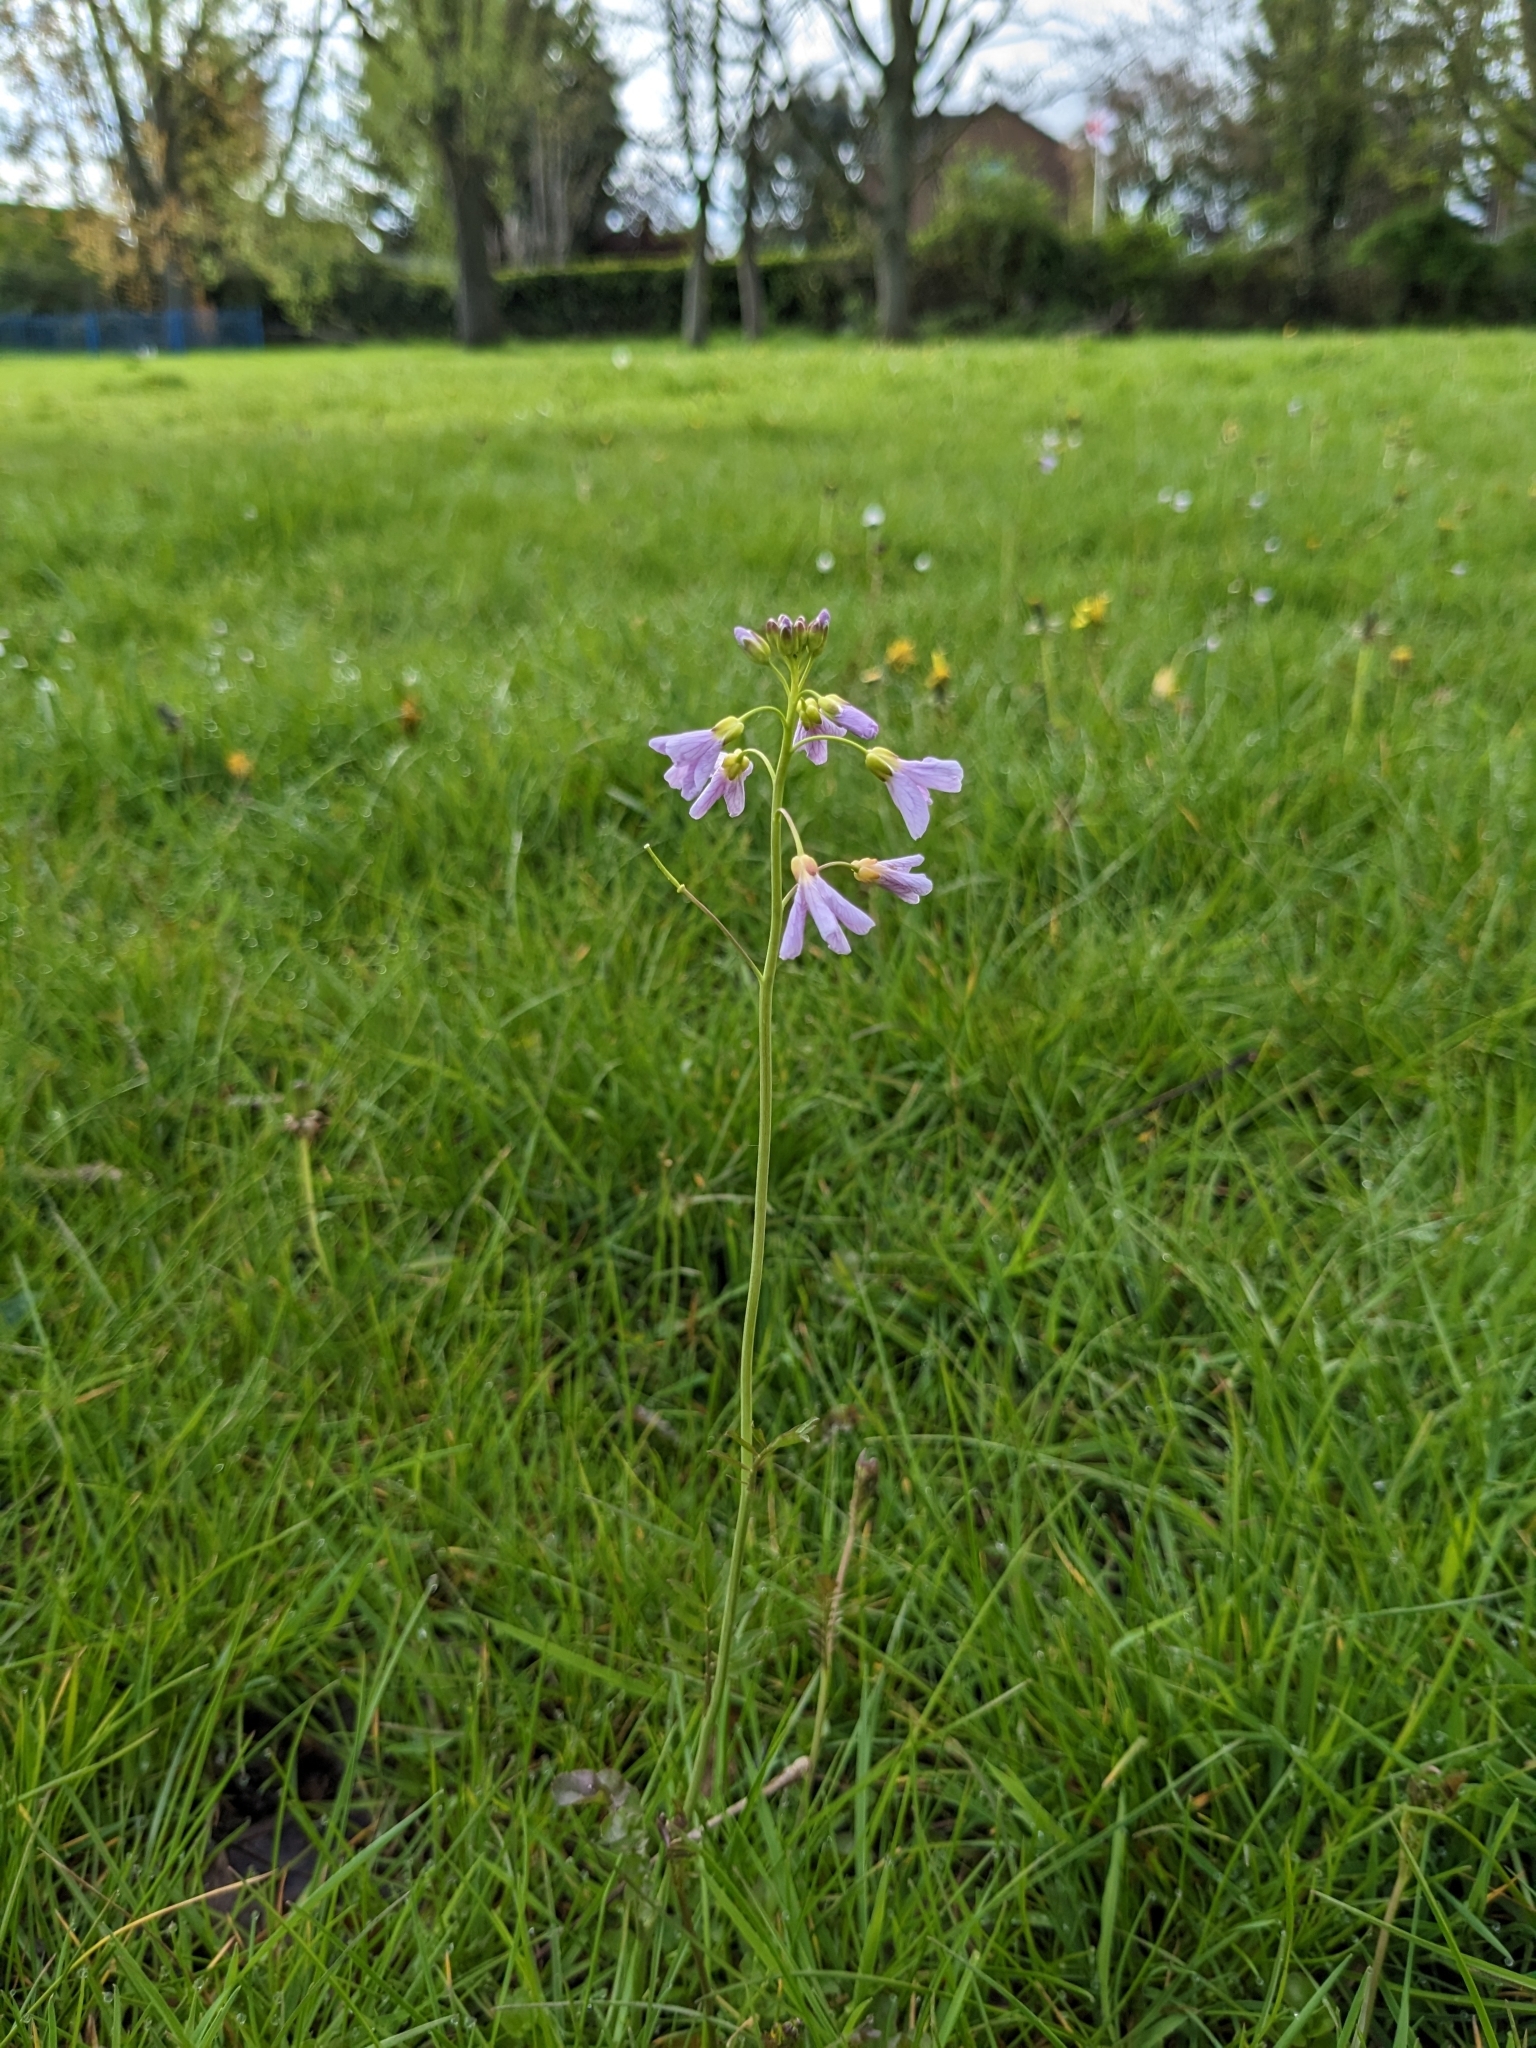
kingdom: Plantae
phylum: Tracheophyta
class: Magnoliopsida
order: Brassicales
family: Brassicaceae
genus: Cardamine
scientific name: Cardamine pratensis
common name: Cuckoo flower
